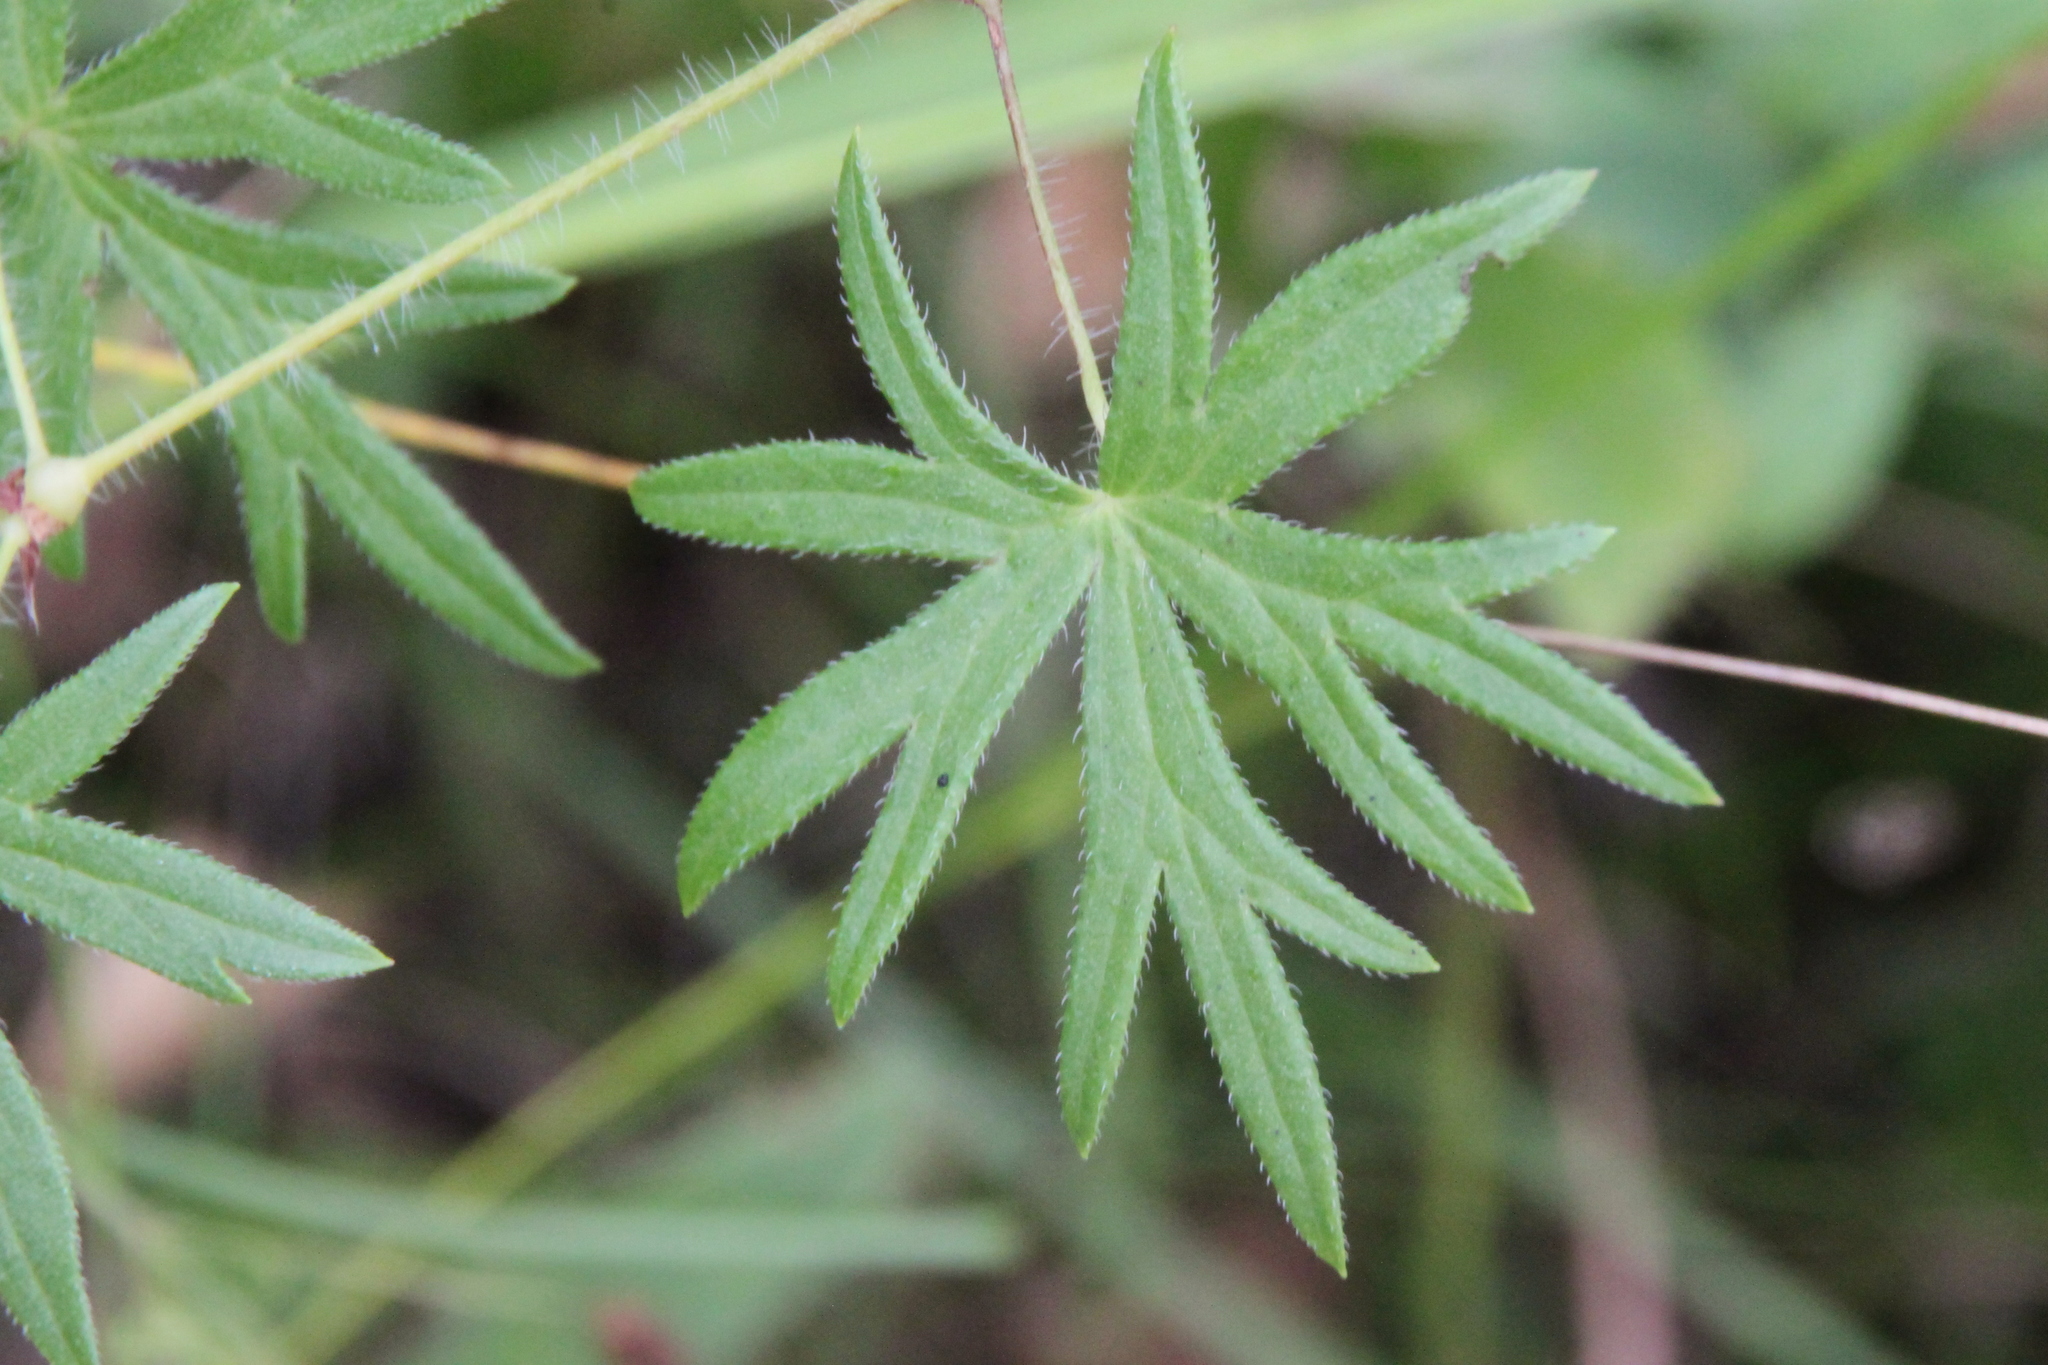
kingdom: Plantae
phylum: Tracheophyta
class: Magnoliopsida
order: Geraniales
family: Geraniaceae
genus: Geranium
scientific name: Geranium sanguineum
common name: Bloody crane's-bill
